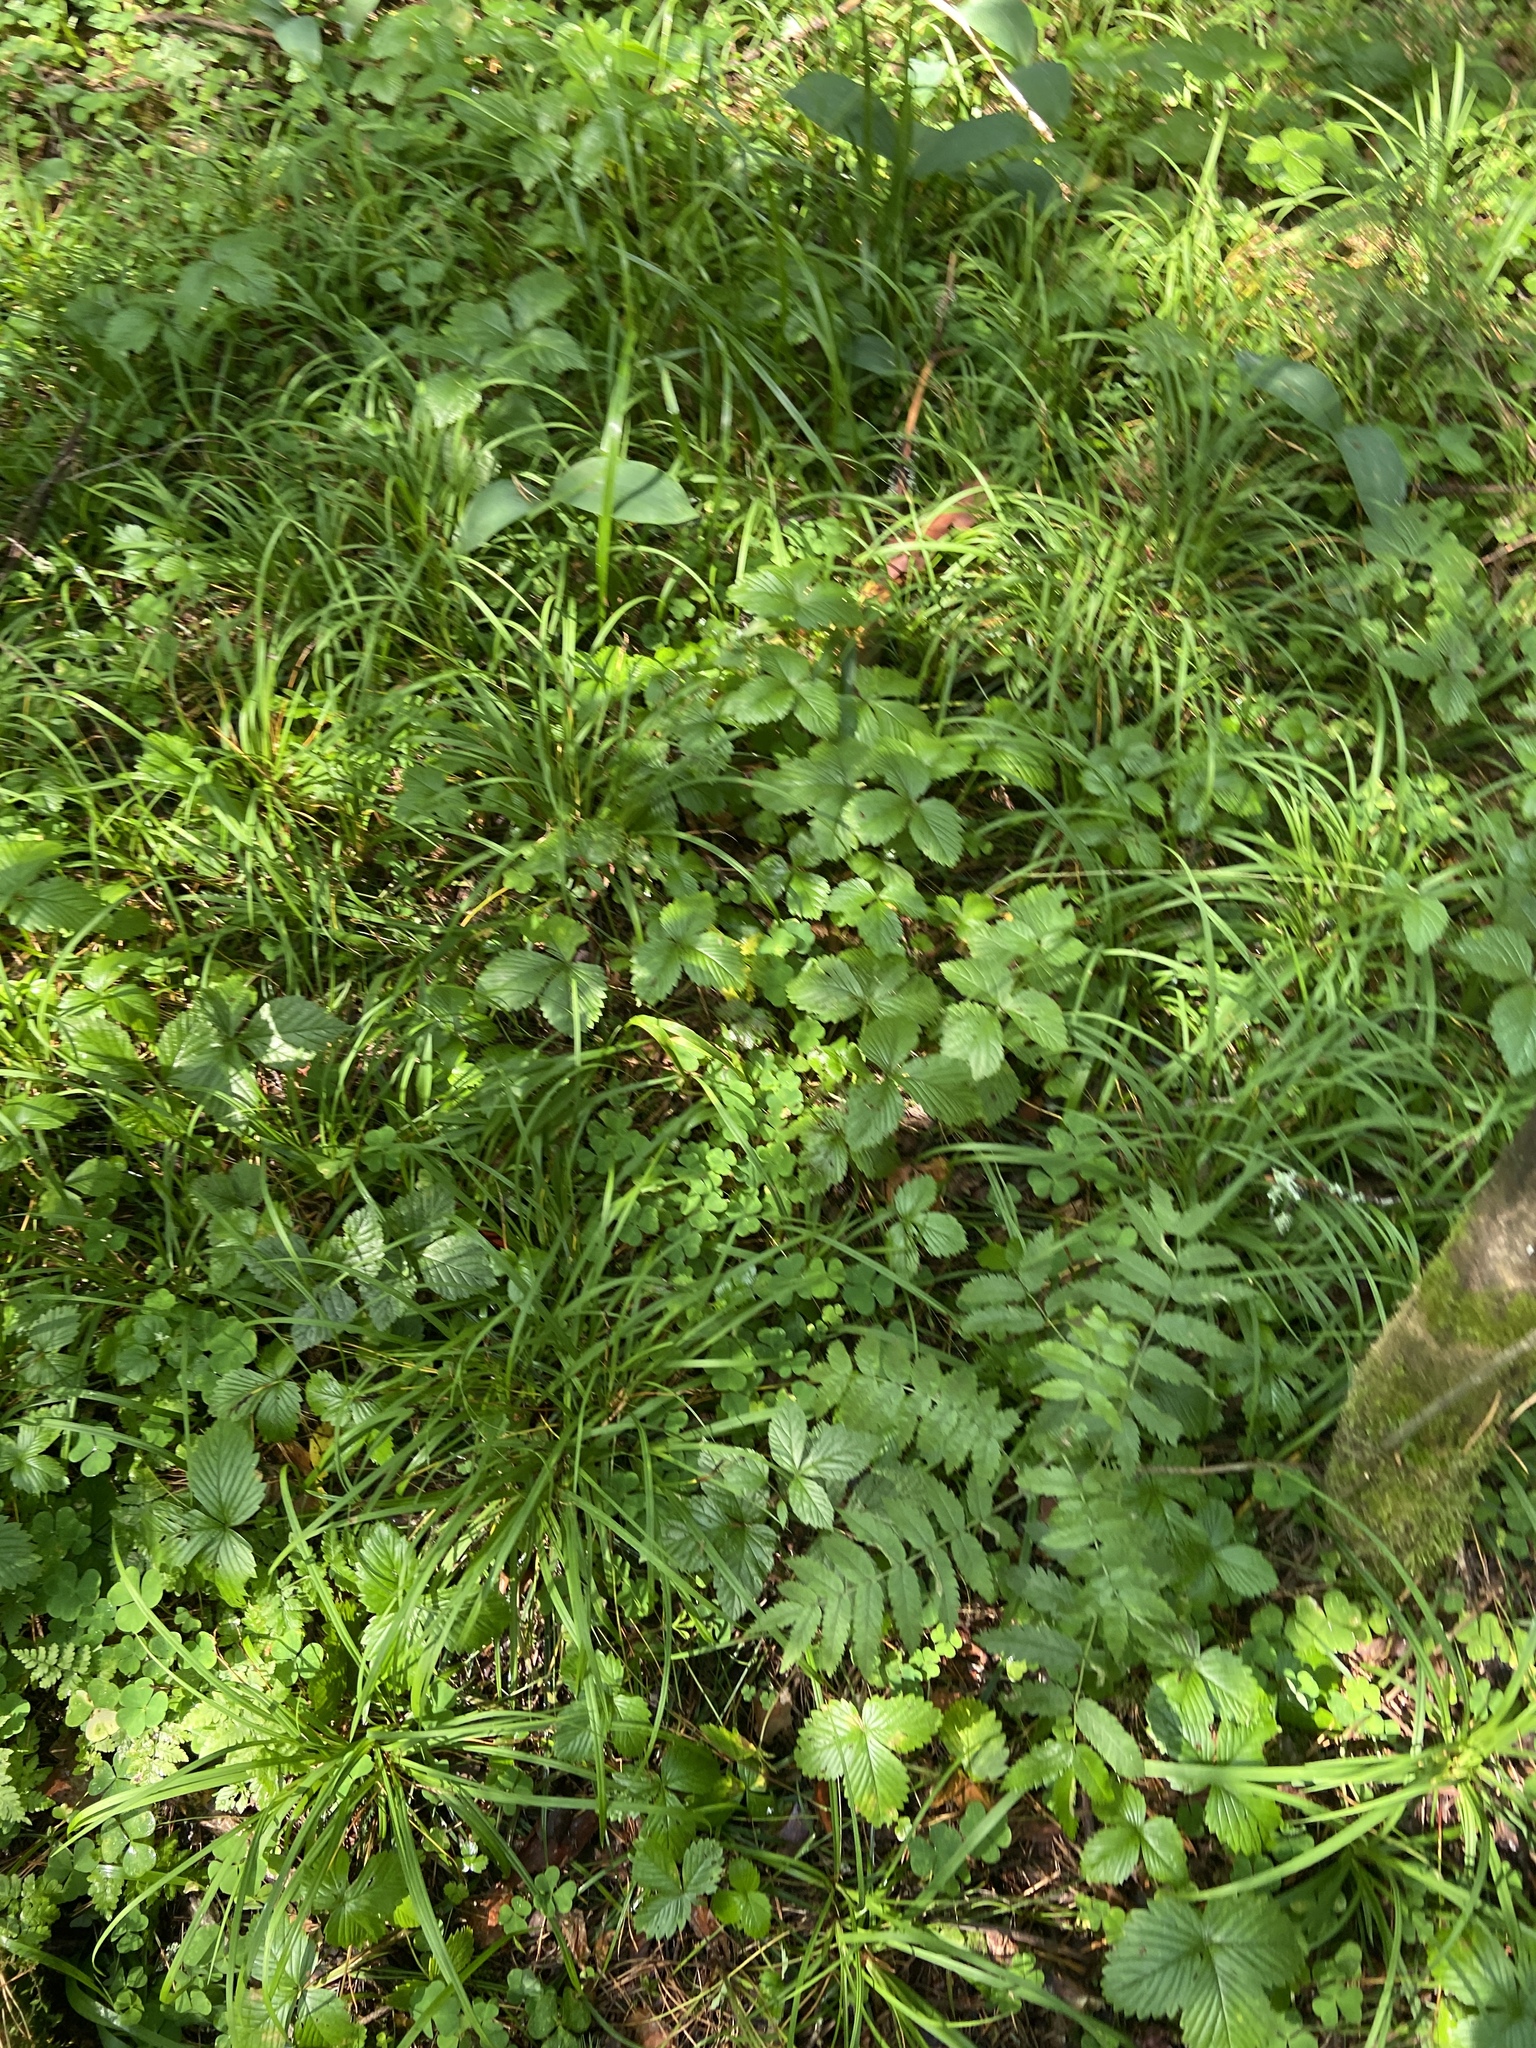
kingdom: Plantae
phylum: Tracheophyta
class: Liliopsida
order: Poales
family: Cyperaceae
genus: Carex
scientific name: Carex digitata
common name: Fingered sedge
